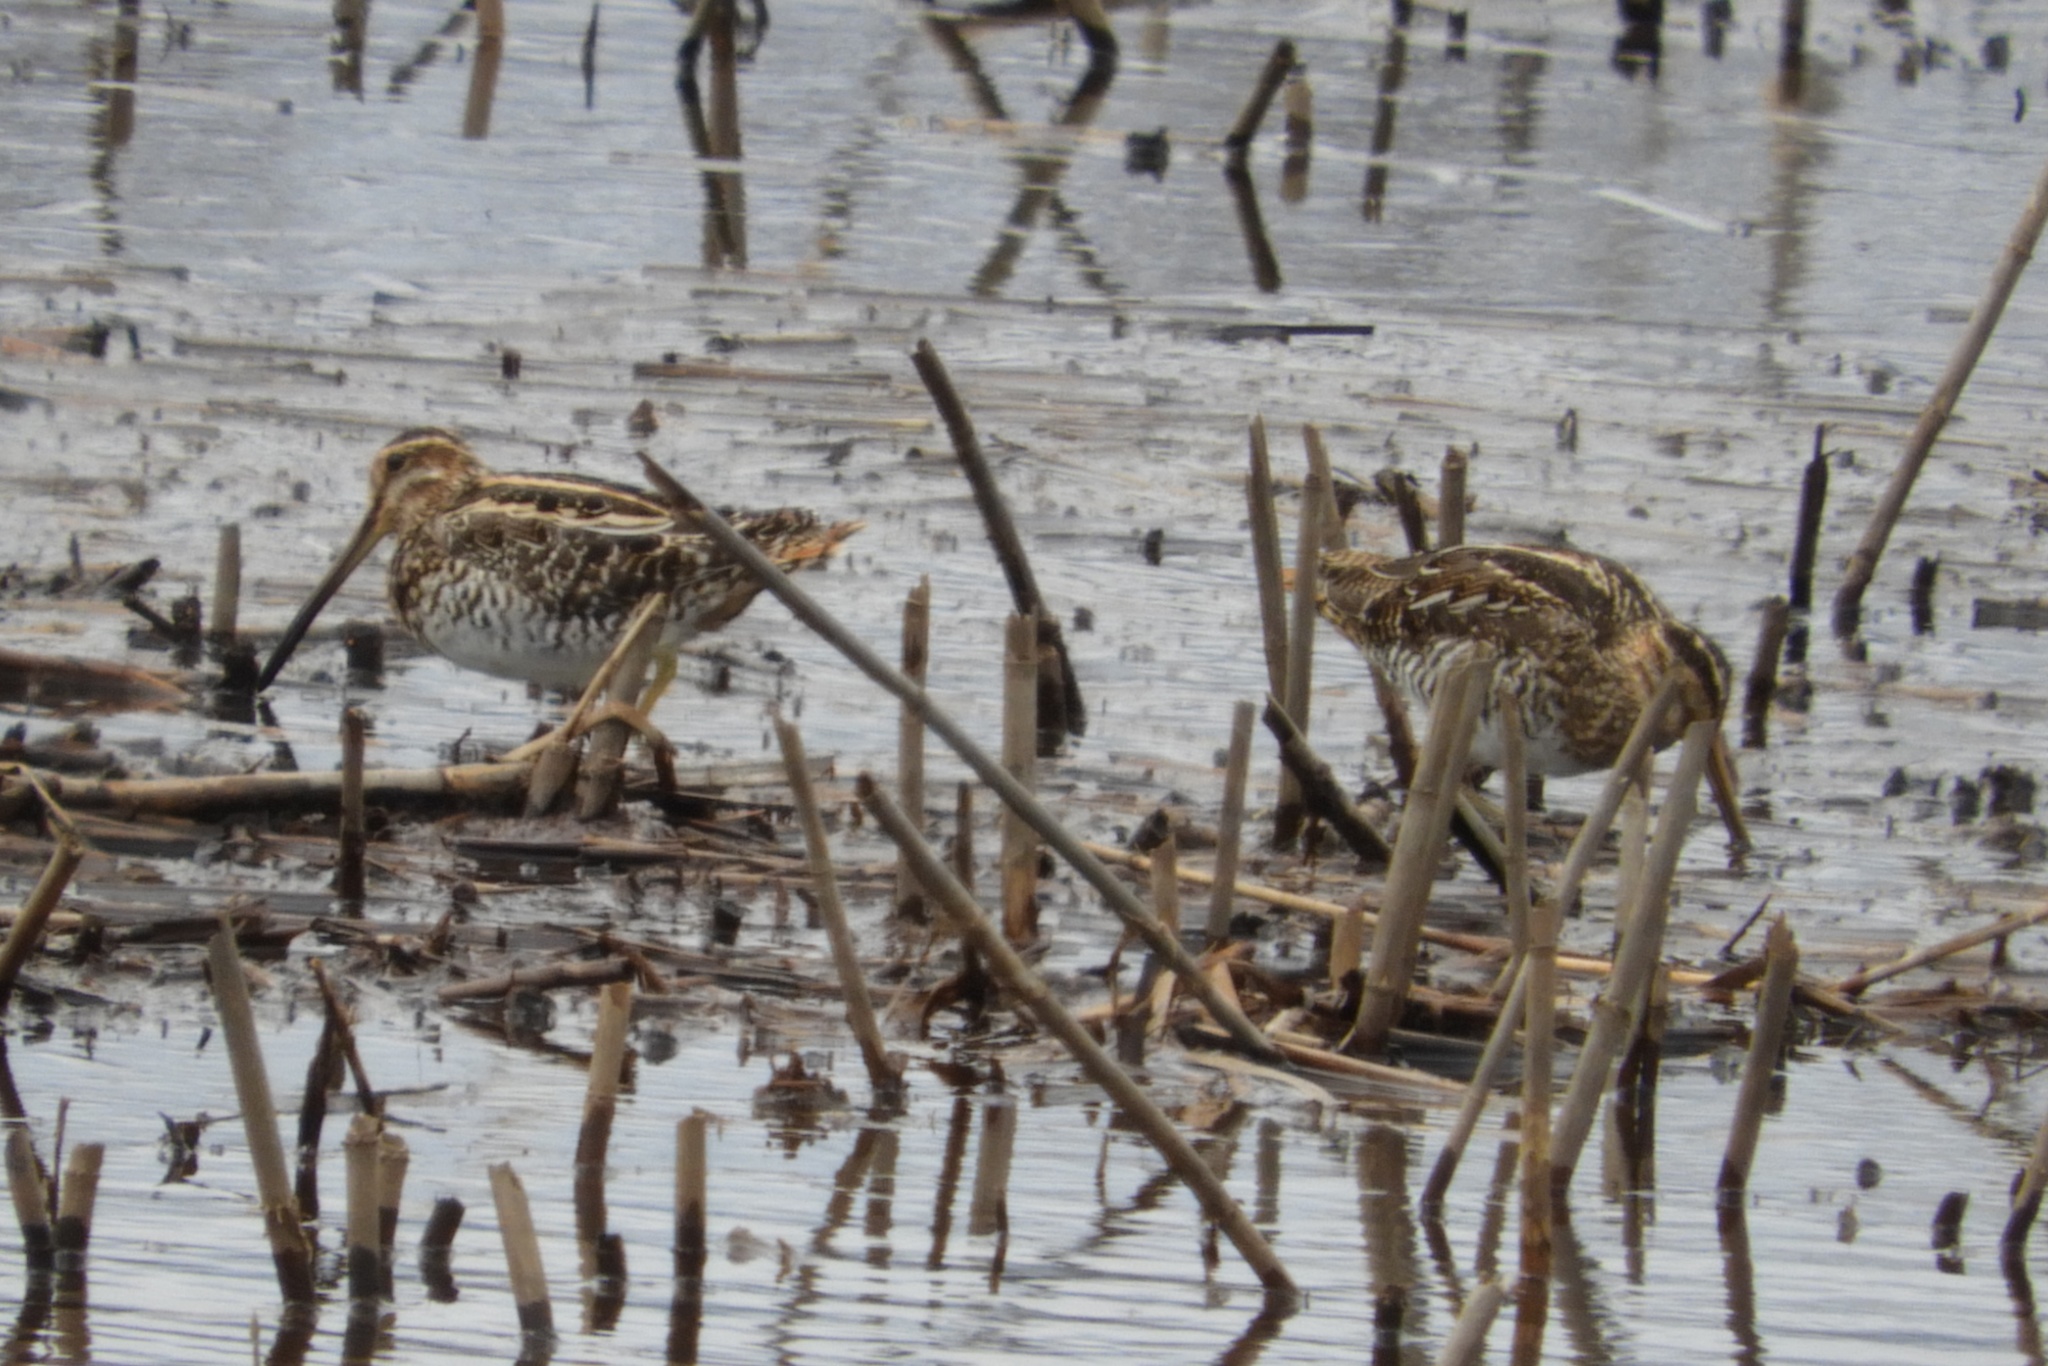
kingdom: Animalia
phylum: Chordata
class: Aves
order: Charadriiformes
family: Scolopacidae
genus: Gallinago
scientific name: Gallinago delicata
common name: Wilson's snipe
